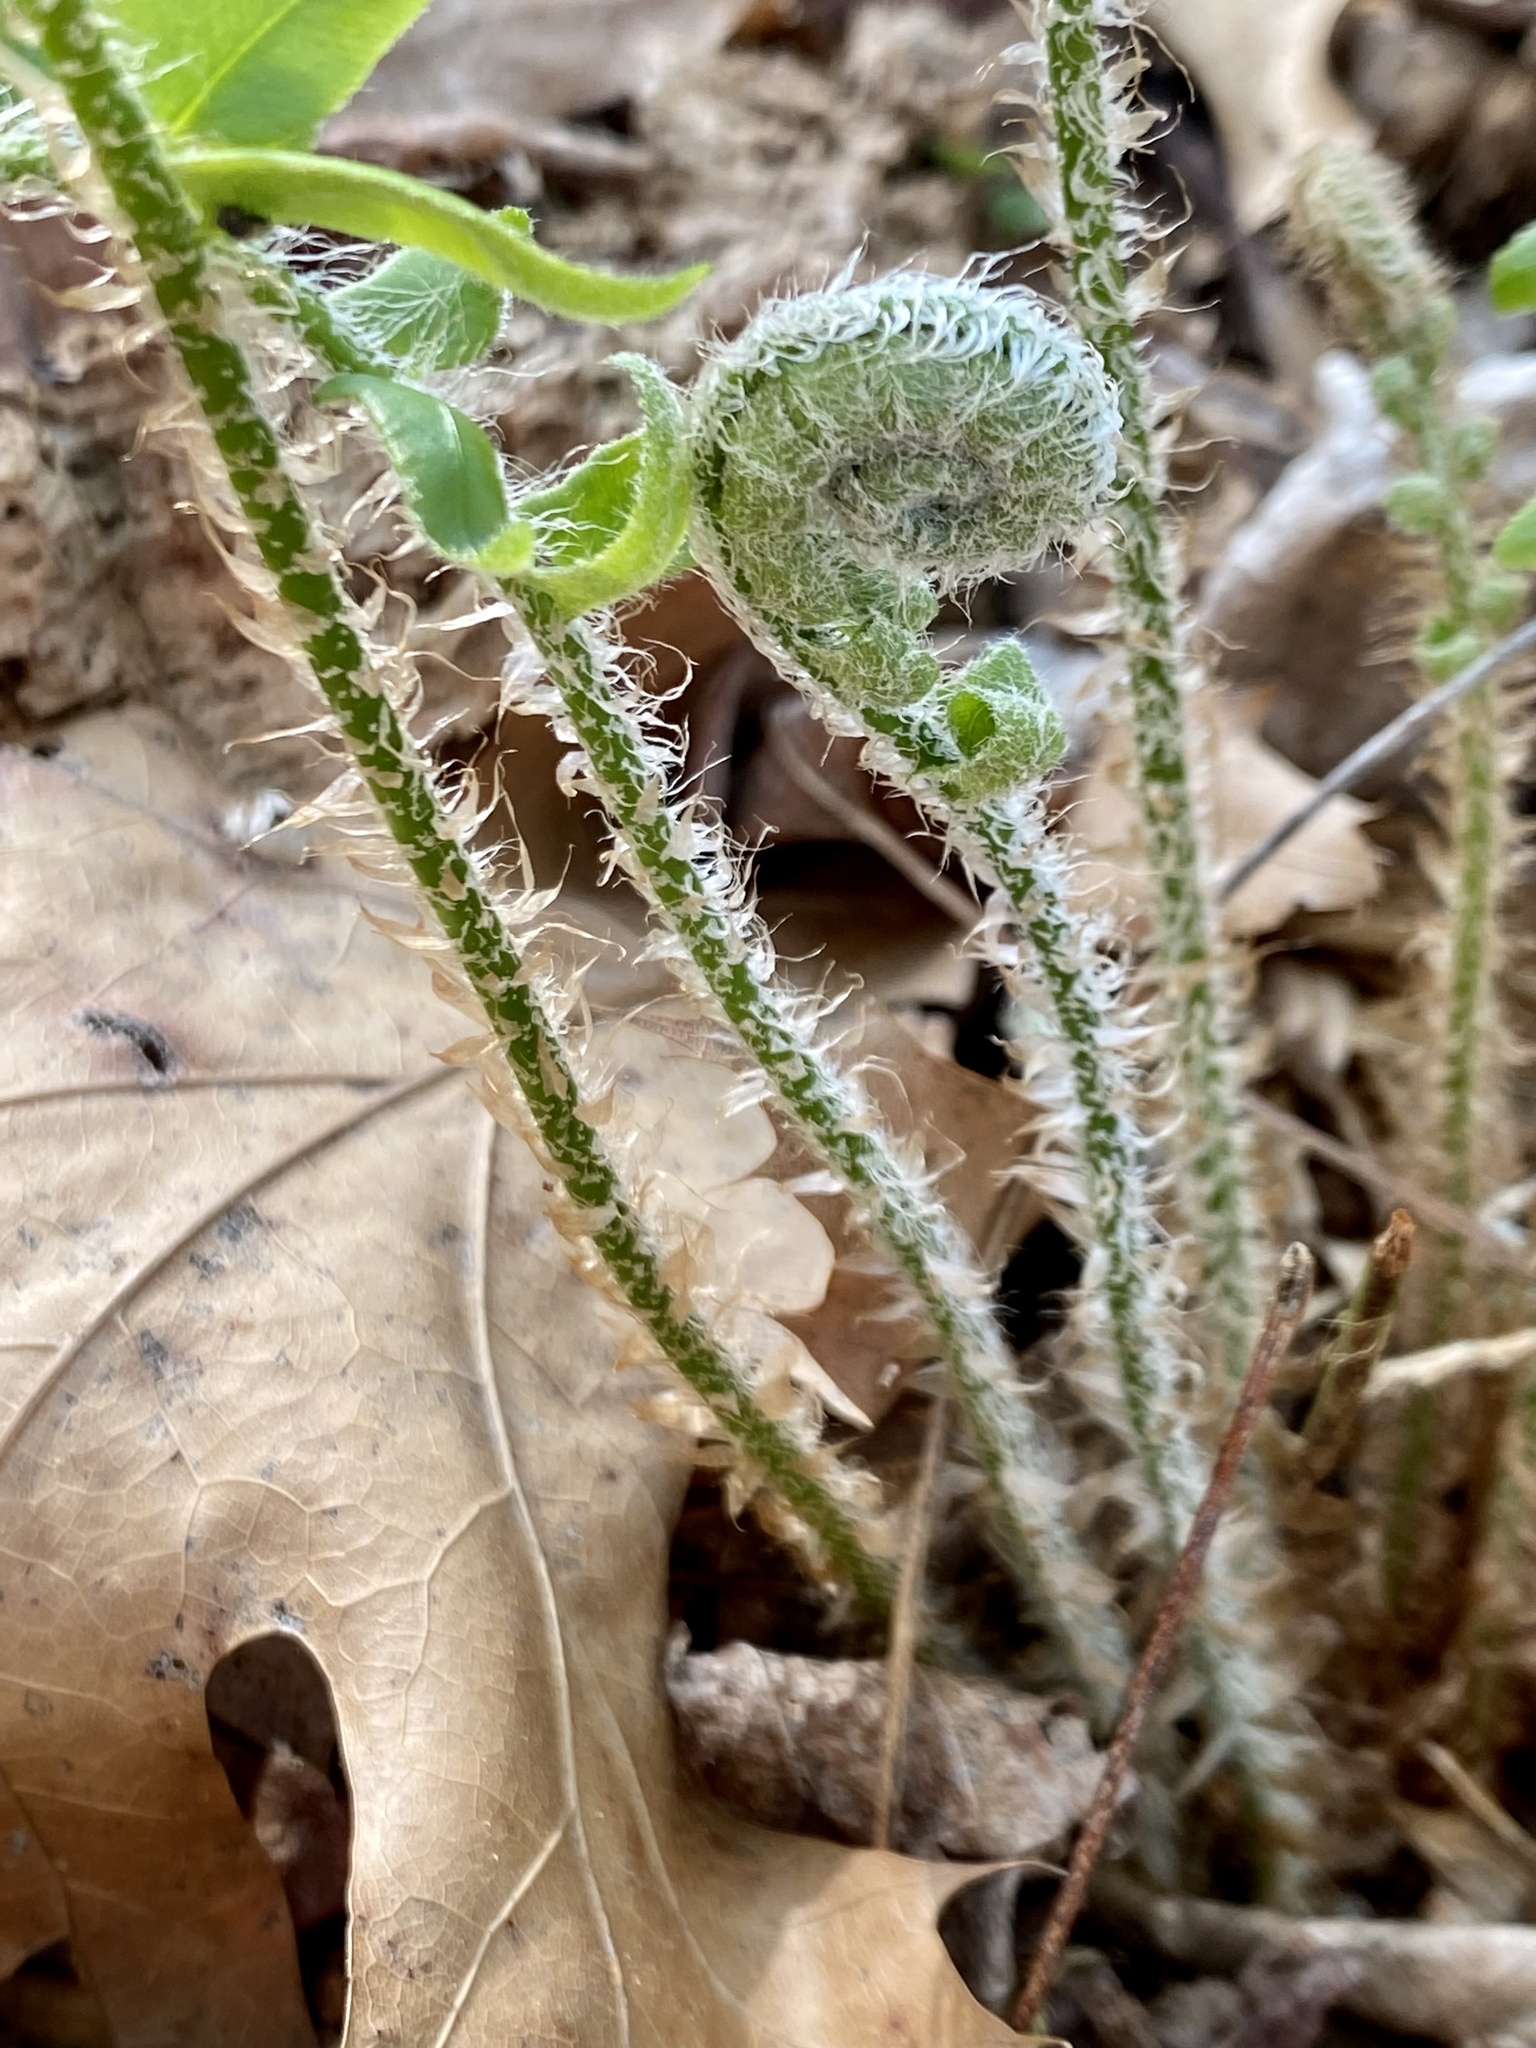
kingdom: Plantae
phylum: Tracheophyta
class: Polypodiopsida
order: Polypodiales
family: Dryopteridaceae
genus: Polystichum
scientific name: Polystichum acrostichoides
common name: Christmas fern
